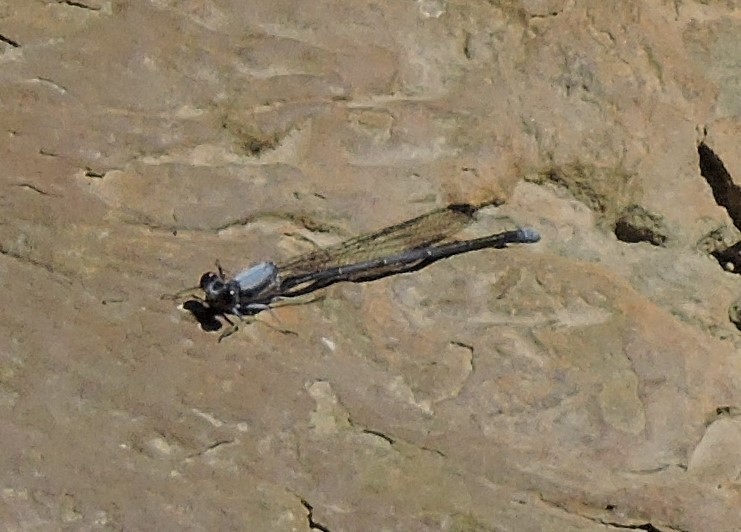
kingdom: Animalia
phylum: Arthropoda
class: Insecta
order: Odonata
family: Coenagrionidae
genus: Argia
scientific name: Argia moesta
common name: Powdered dancer
